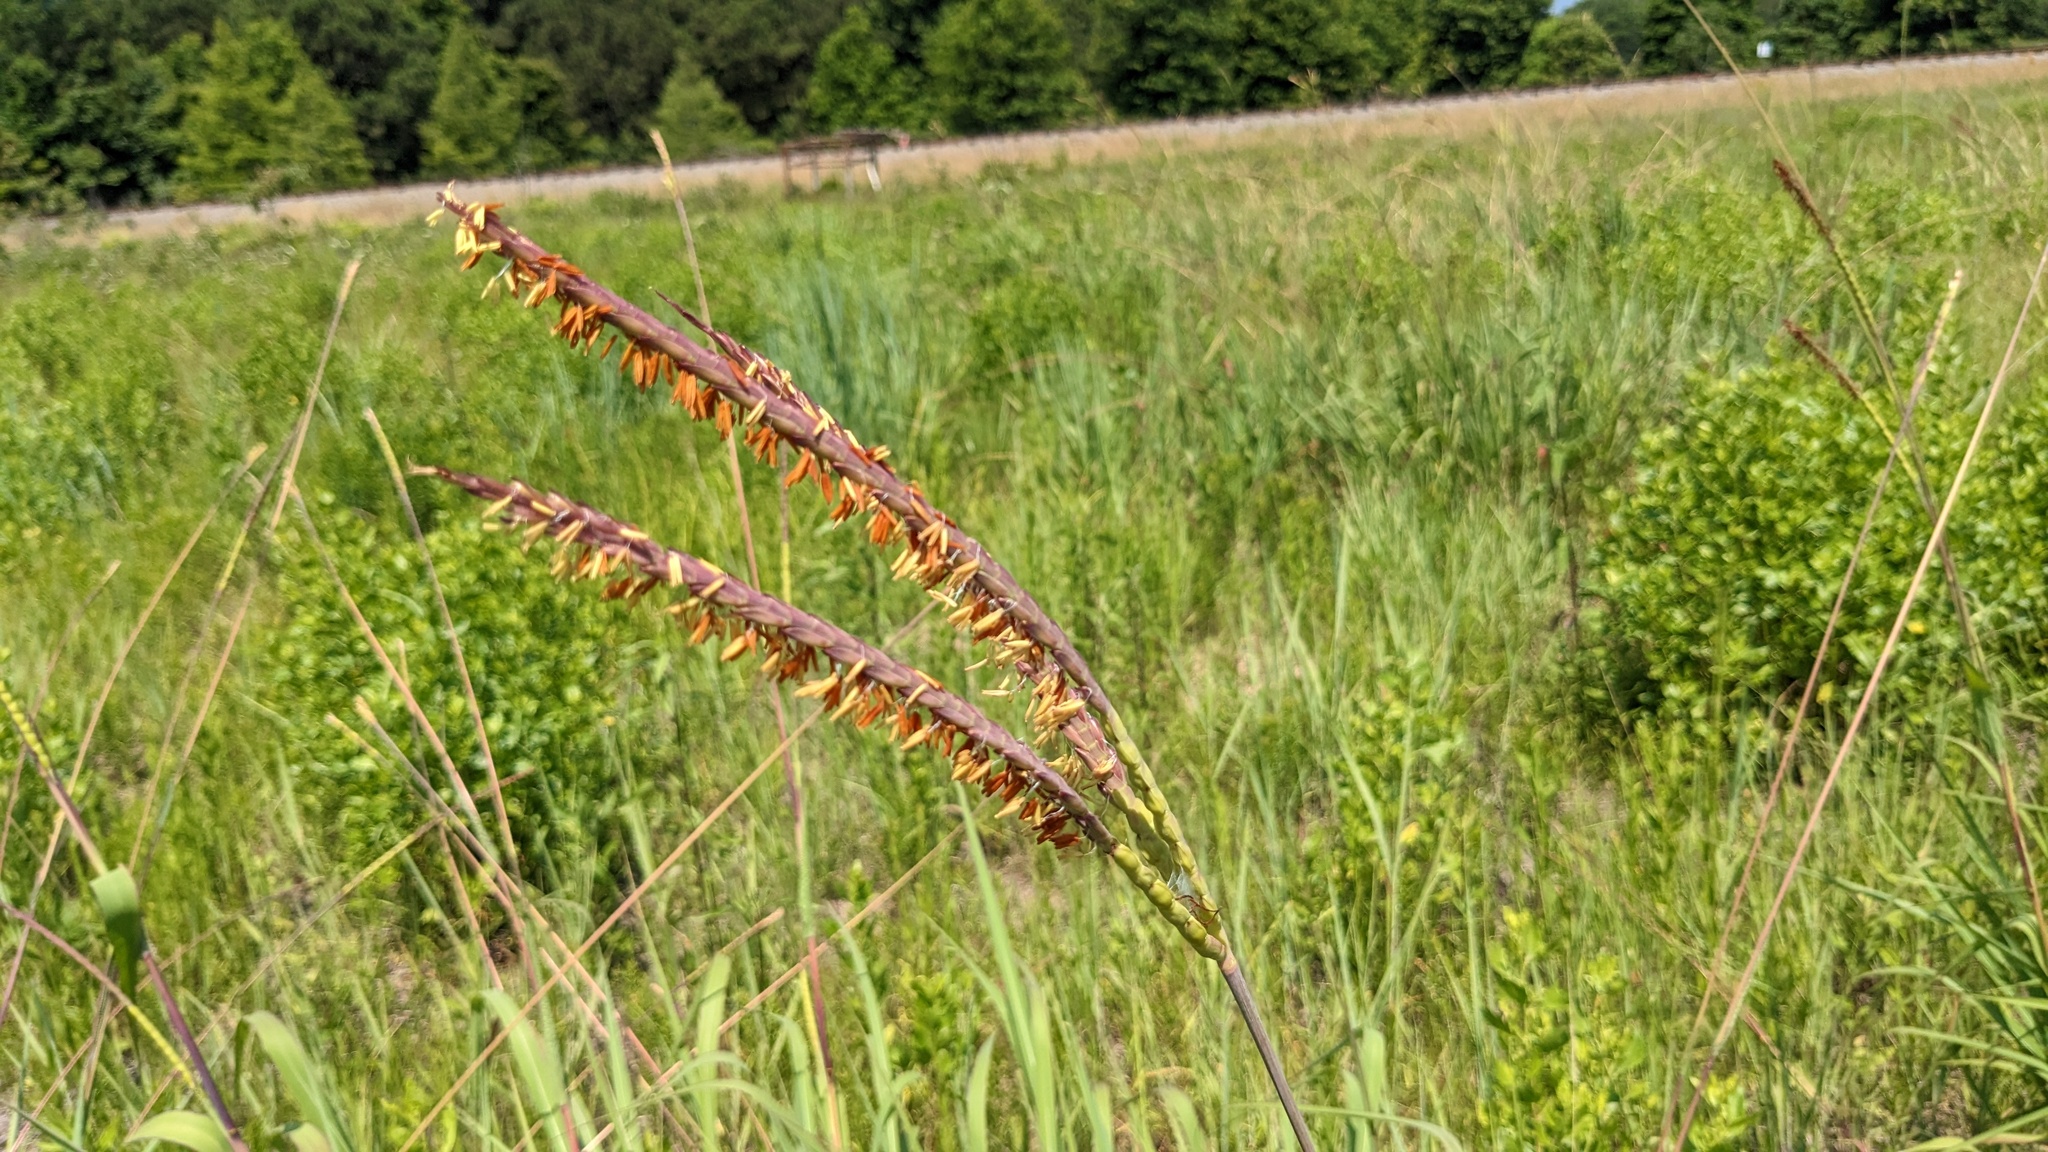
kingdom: Plantae
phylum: Tracheophyta
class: Liliopsida
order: Poales
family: Poaceae
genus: Tripsacum
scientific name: Tripsacum dactyloides
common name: Buffalo-grass
